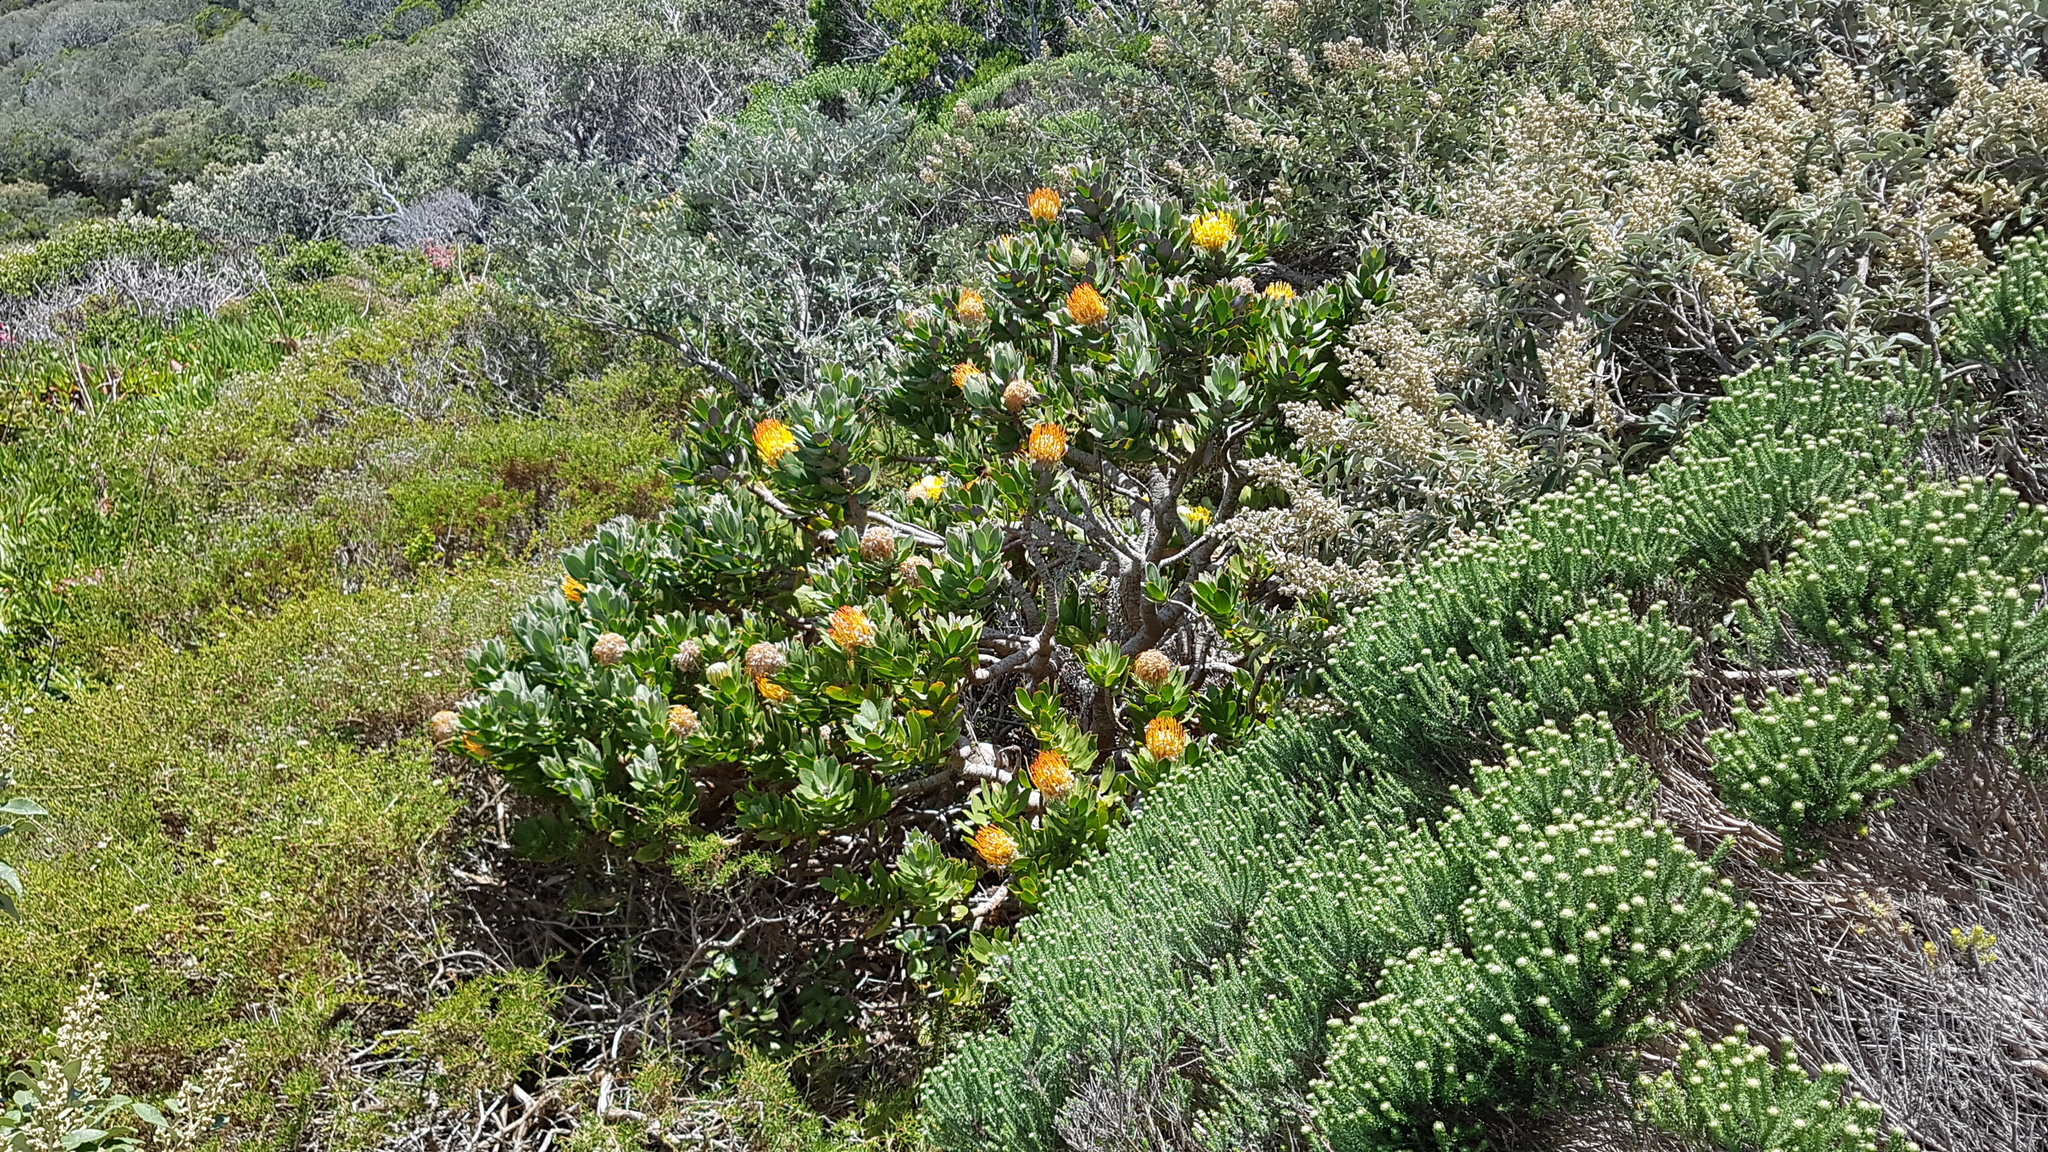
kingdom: Plantae
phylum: Tracheophyta
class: Magnoliopsida
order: Proteales
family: Proteaceae
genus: Leucospermum
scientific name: Leucospermum conocarpodendron
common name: Tree pincushion
